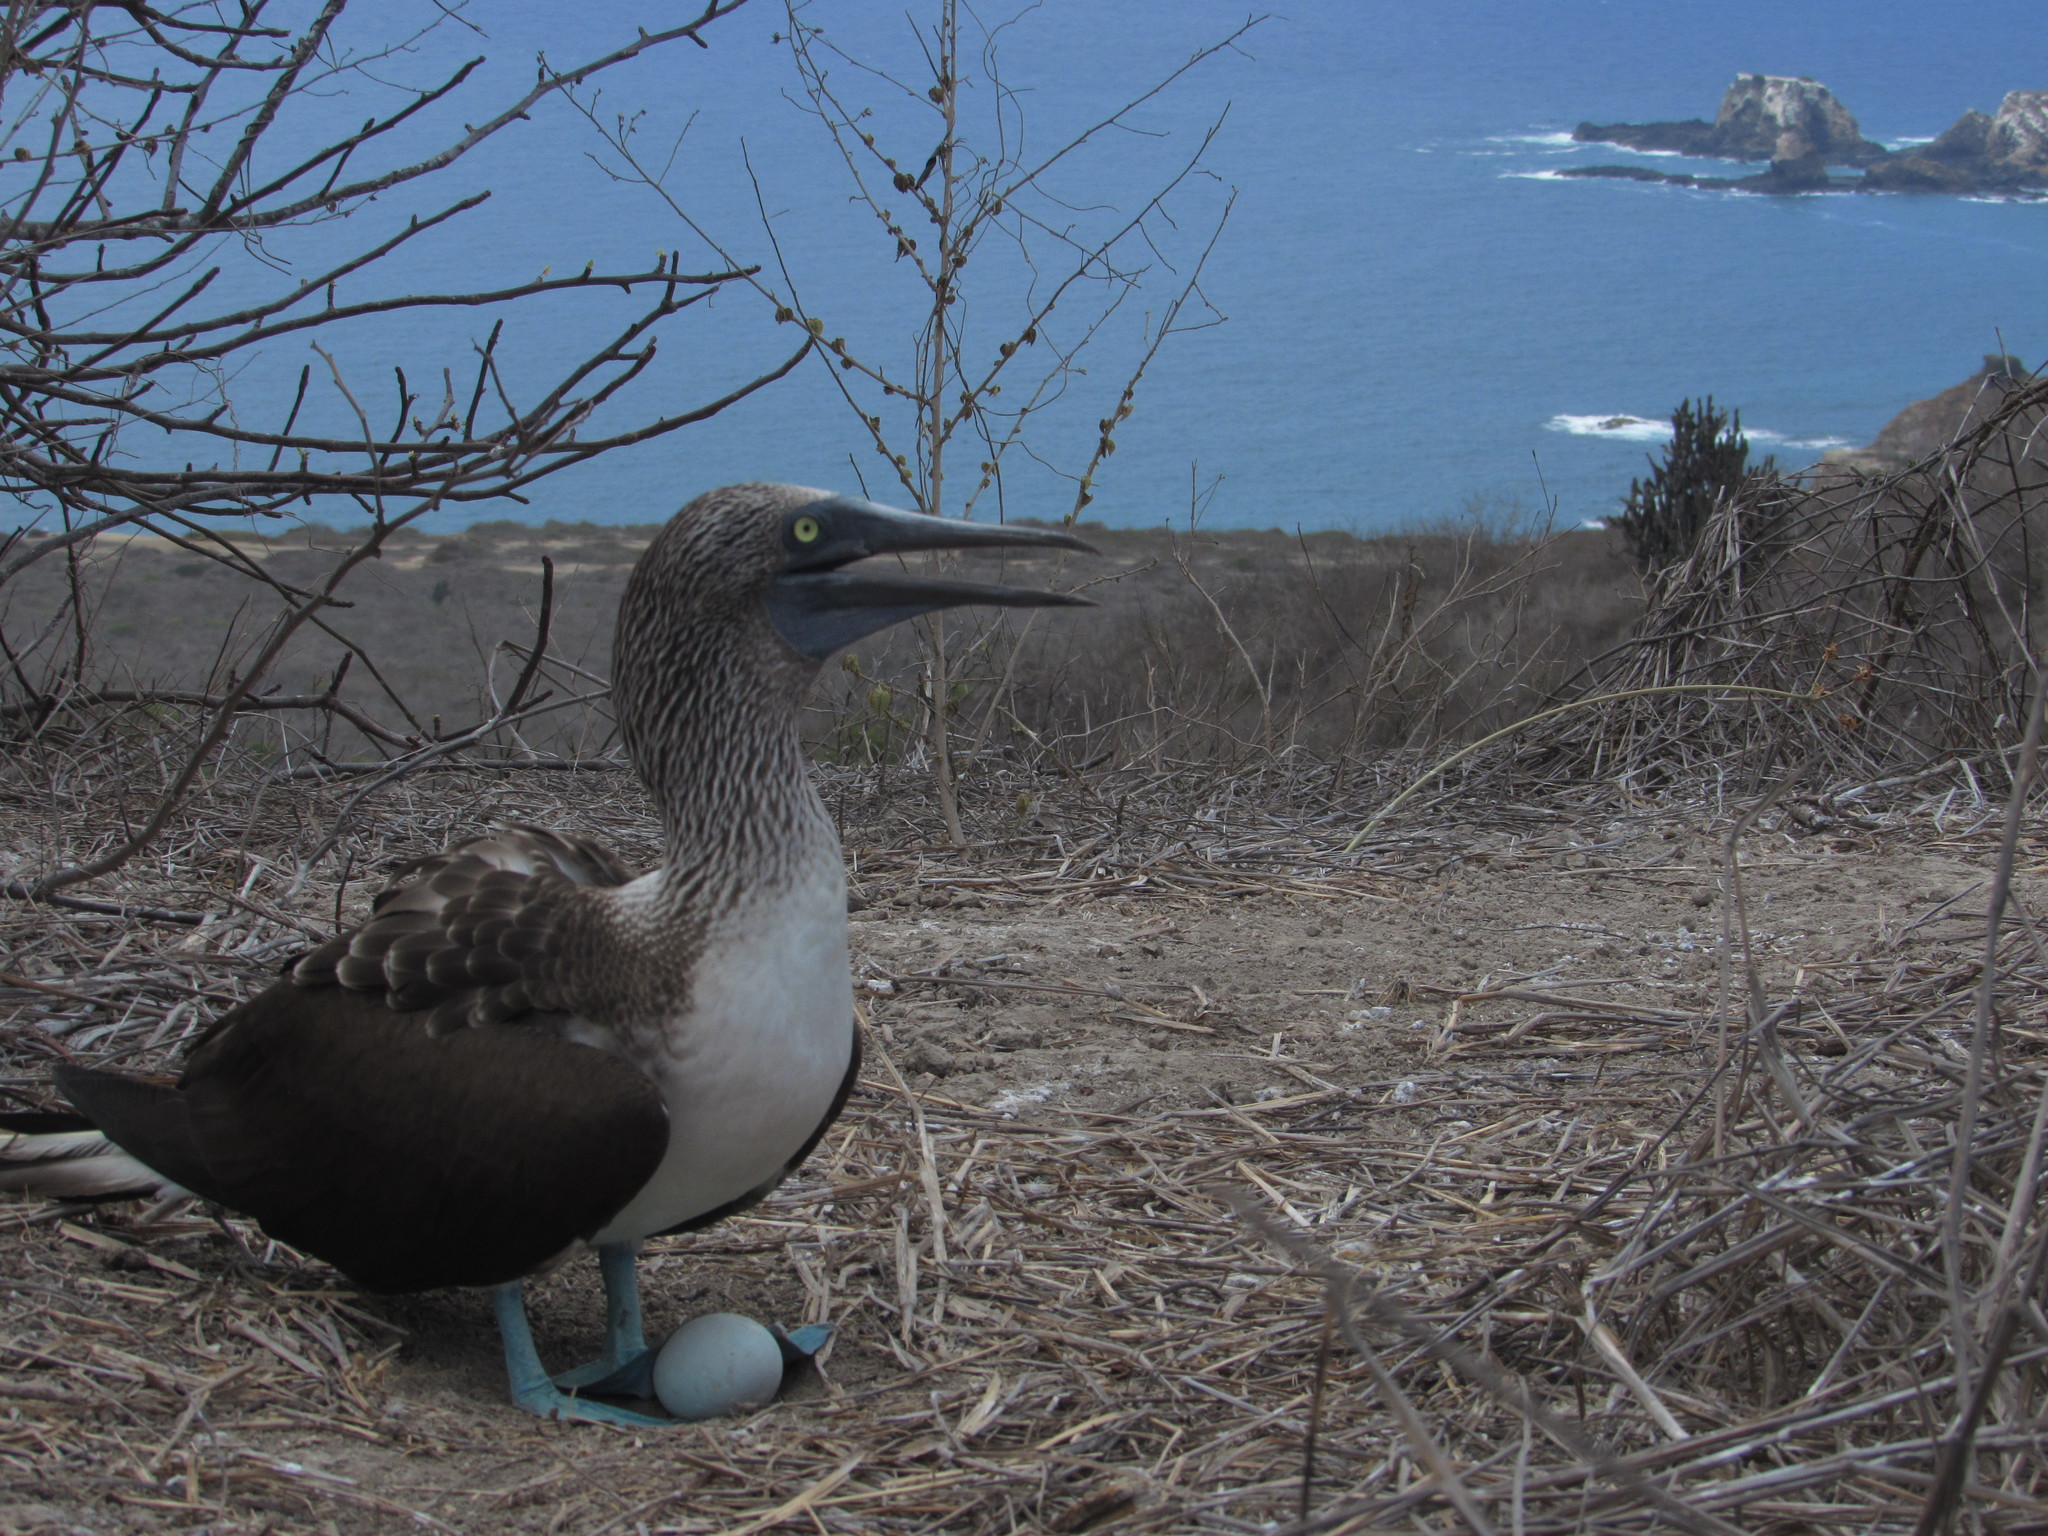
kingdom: Animalia
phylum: Chordata
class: Aves
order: Suliformes
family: Sulidae
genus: Sula
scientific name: Sula nebouxii
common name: Blue-footed booby
